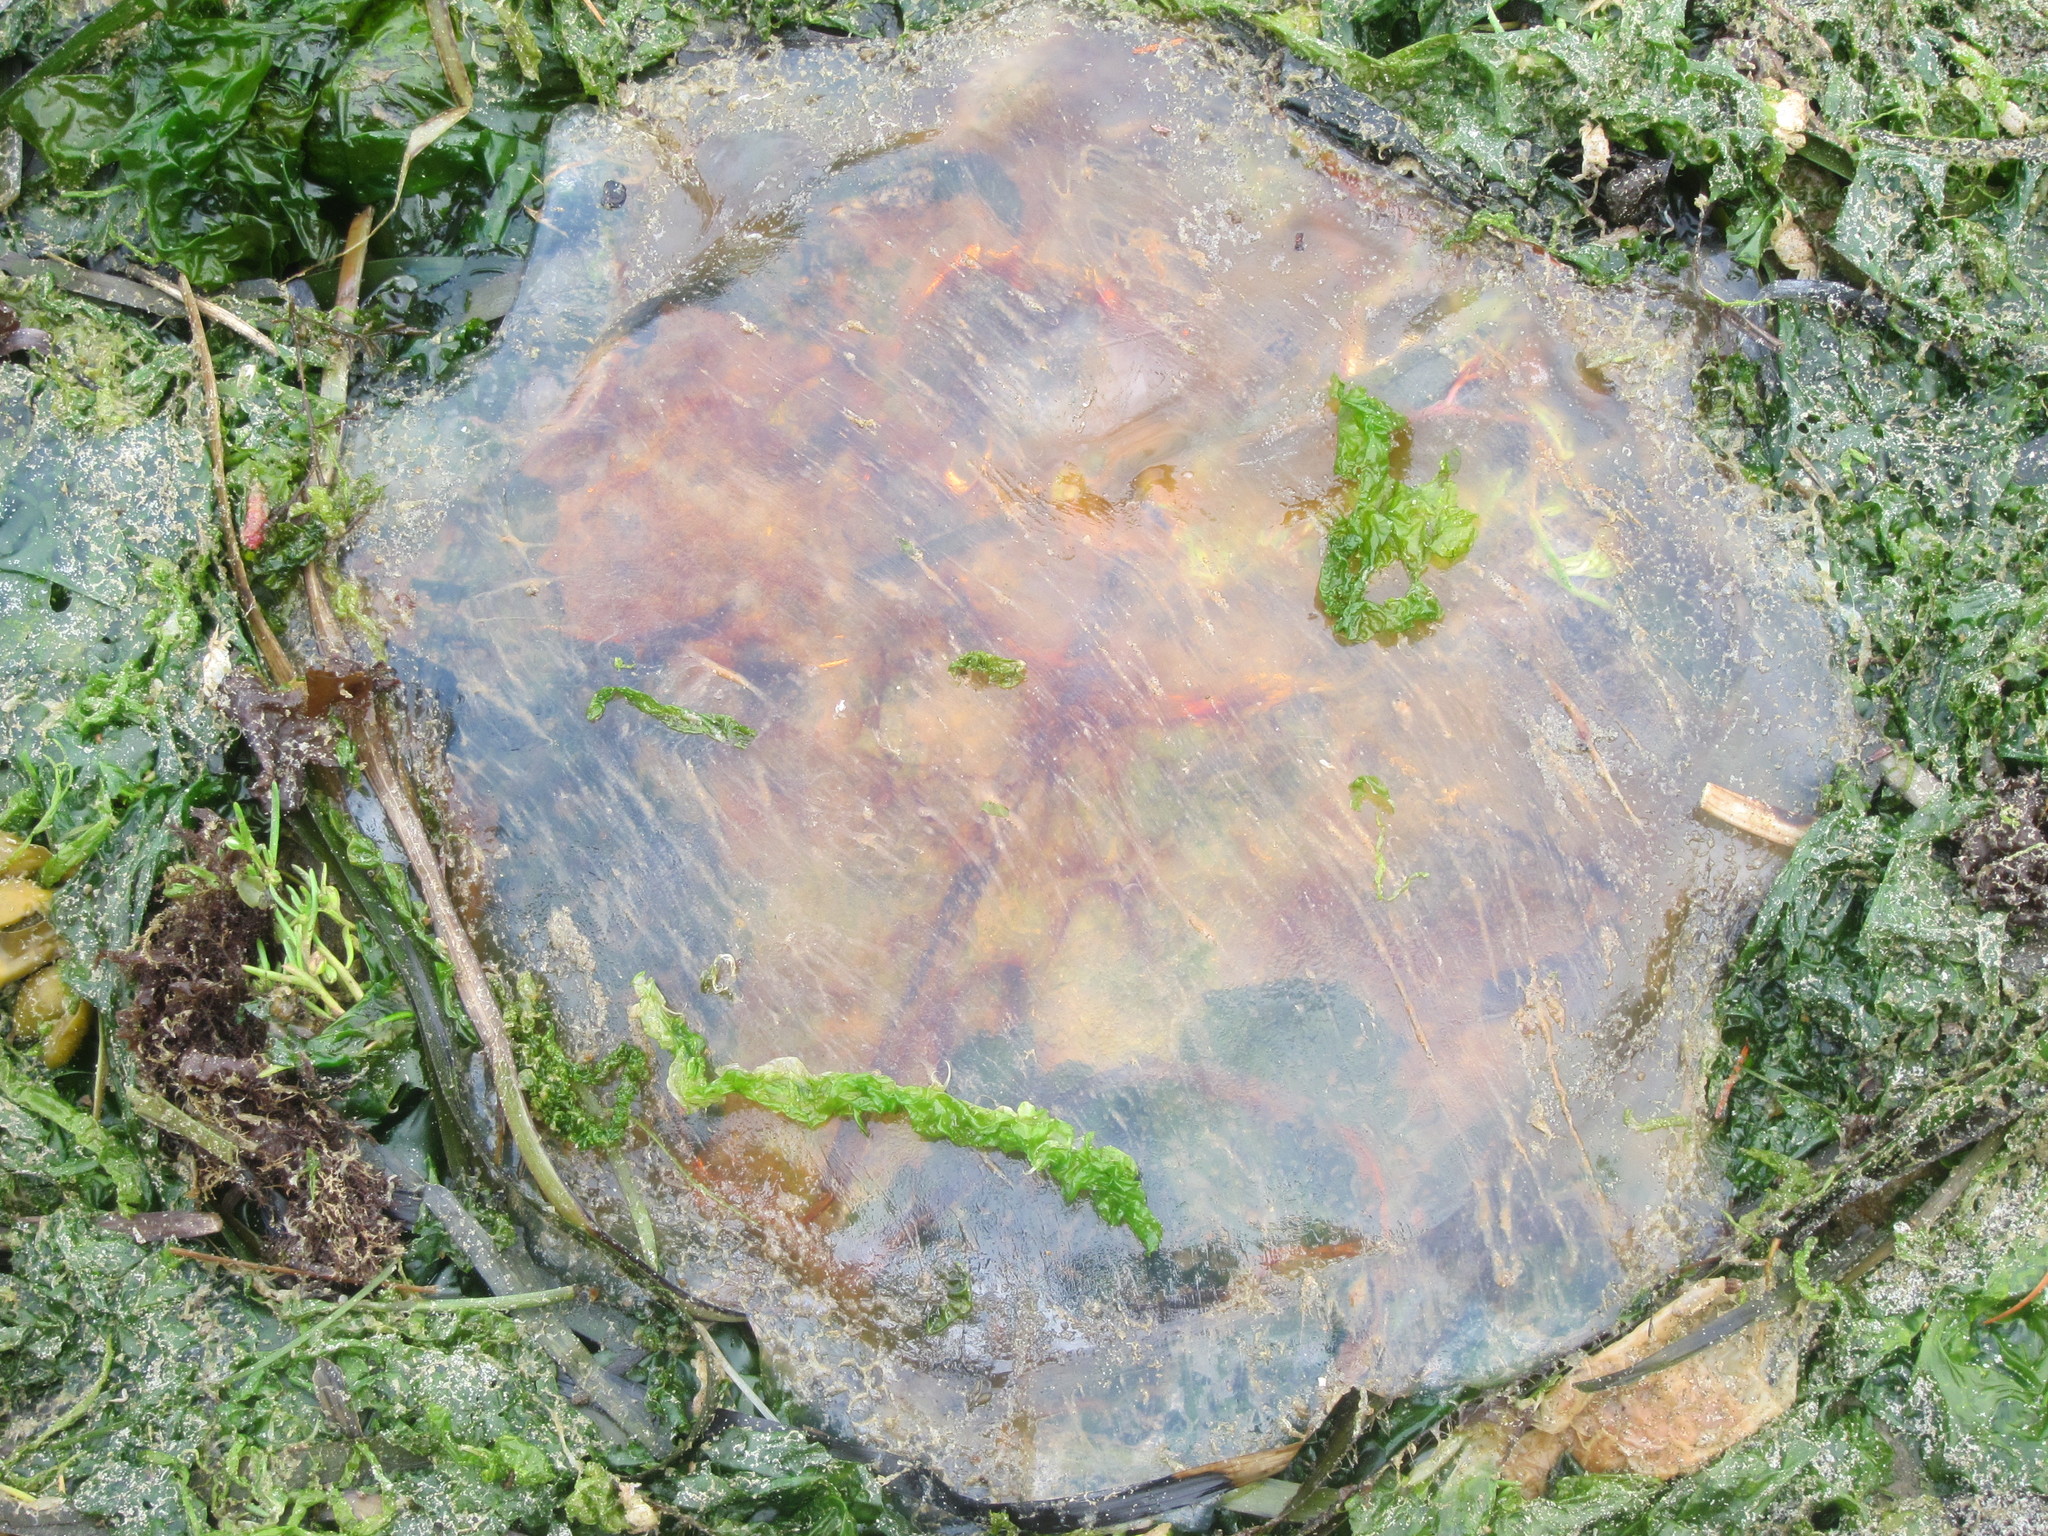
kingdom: Animalia
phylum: Cnidaria
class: Scyphozoa
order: Semaeostomeae
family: Cyaneidae
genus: Cyanea
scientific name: Cyanea ferruginea
